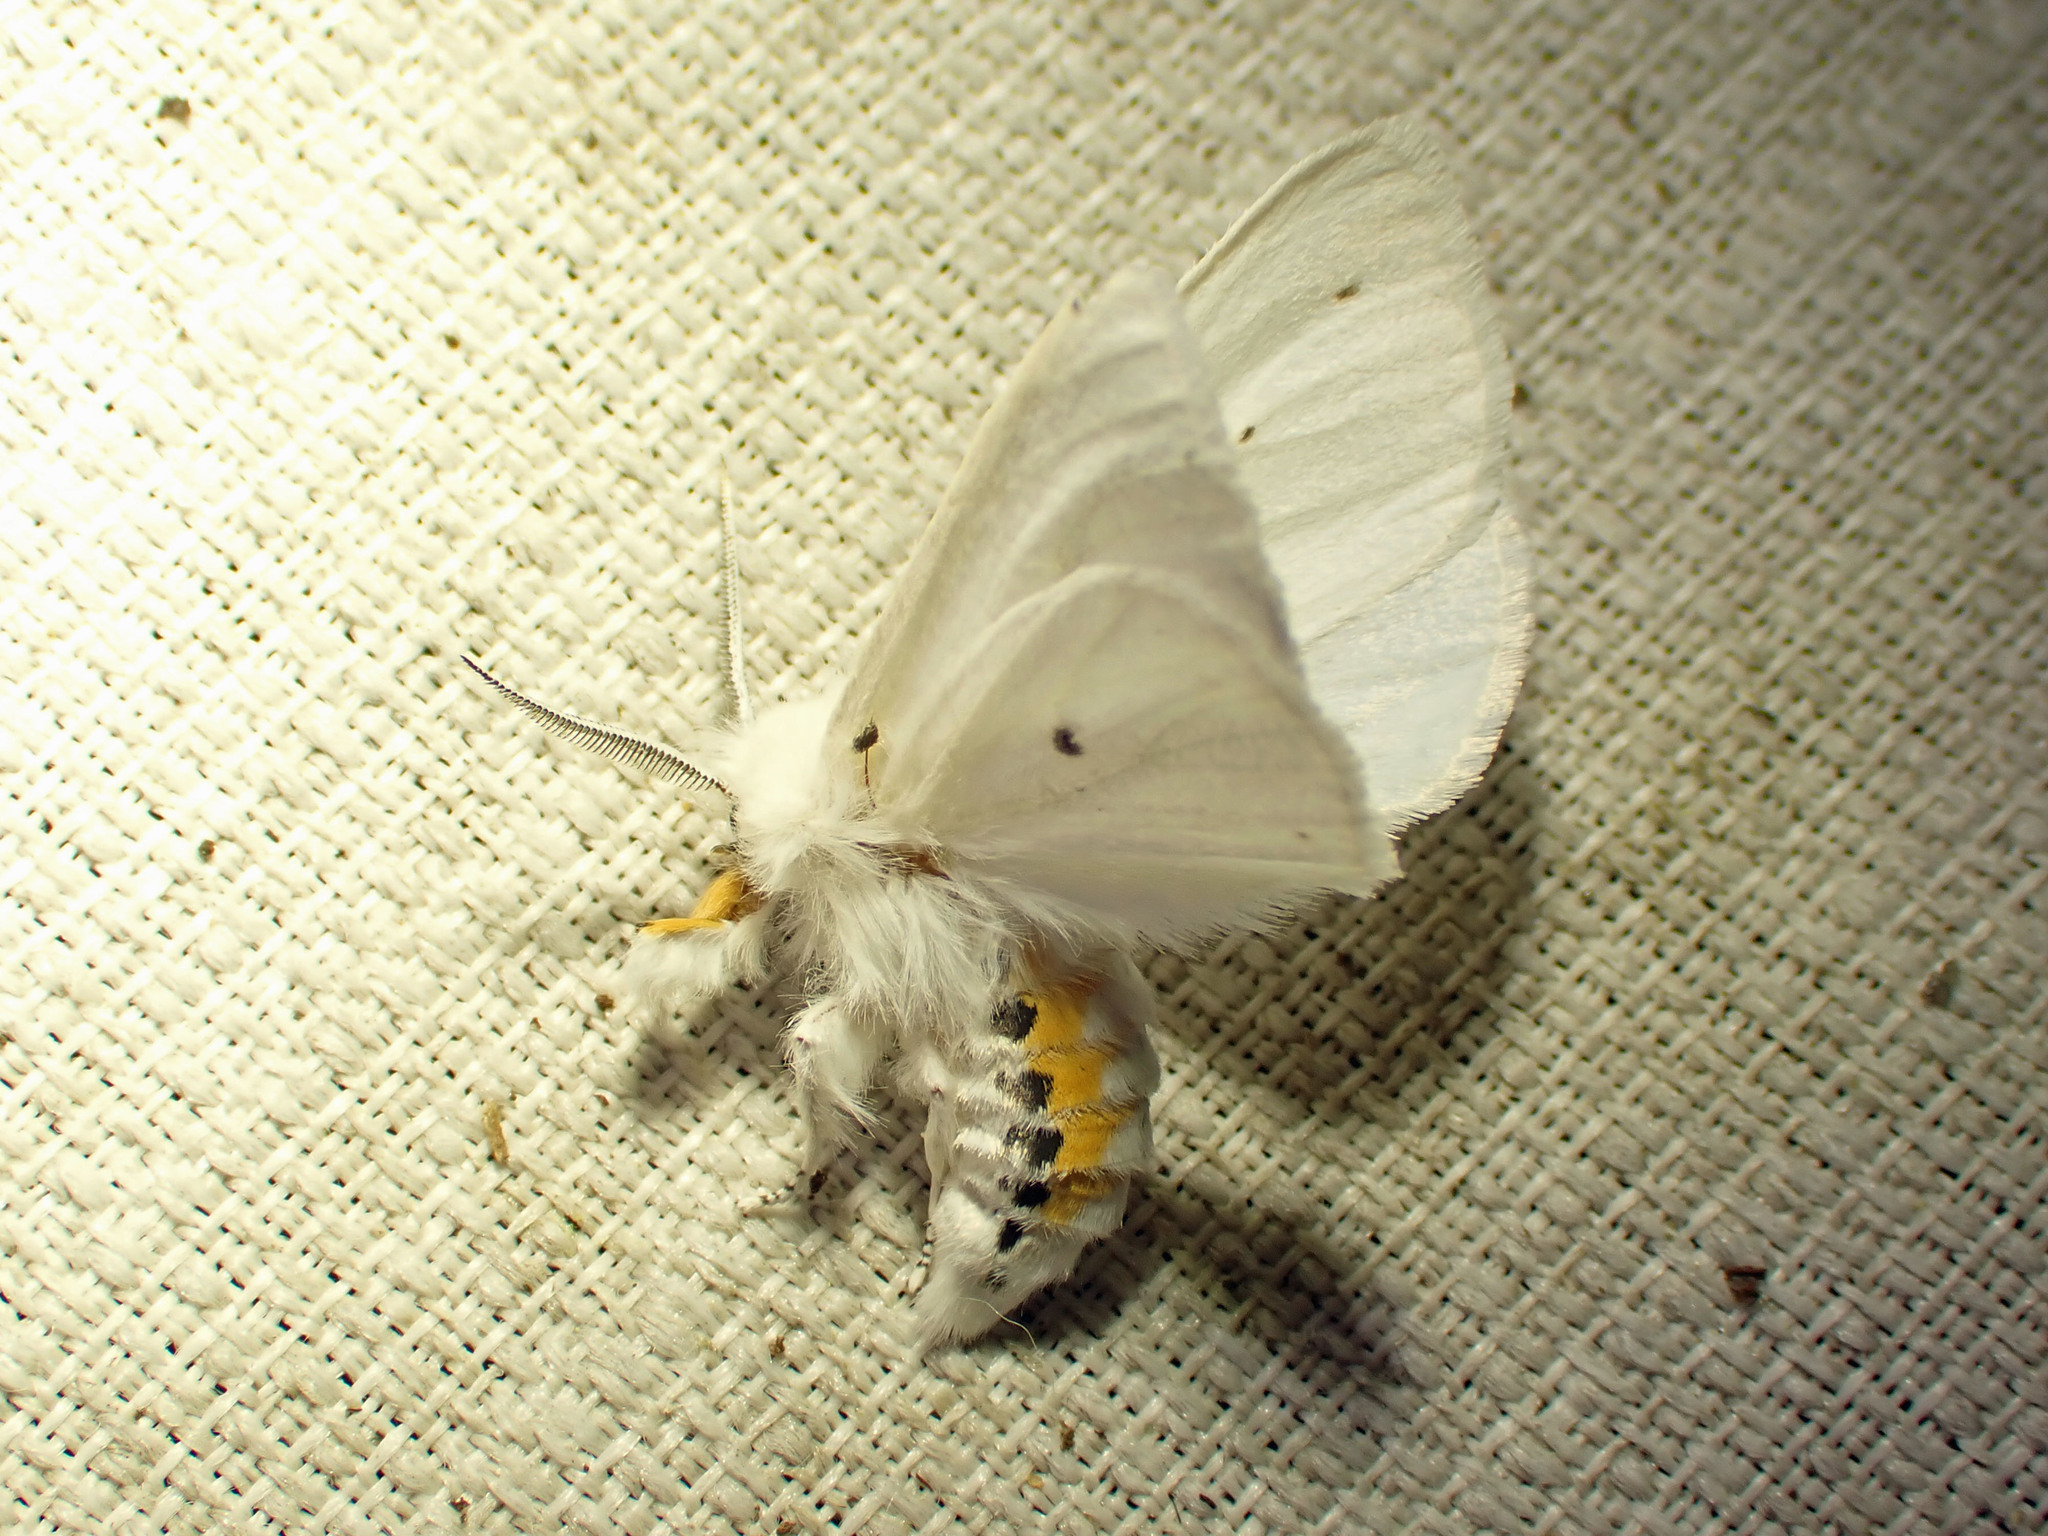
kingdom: Animalia
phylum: Arthropoda
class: Insecta
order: Lepidoptera
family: Erebidae
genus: Spilosoma
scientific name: Spilosoma virginica
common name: Virginia tiger moth
